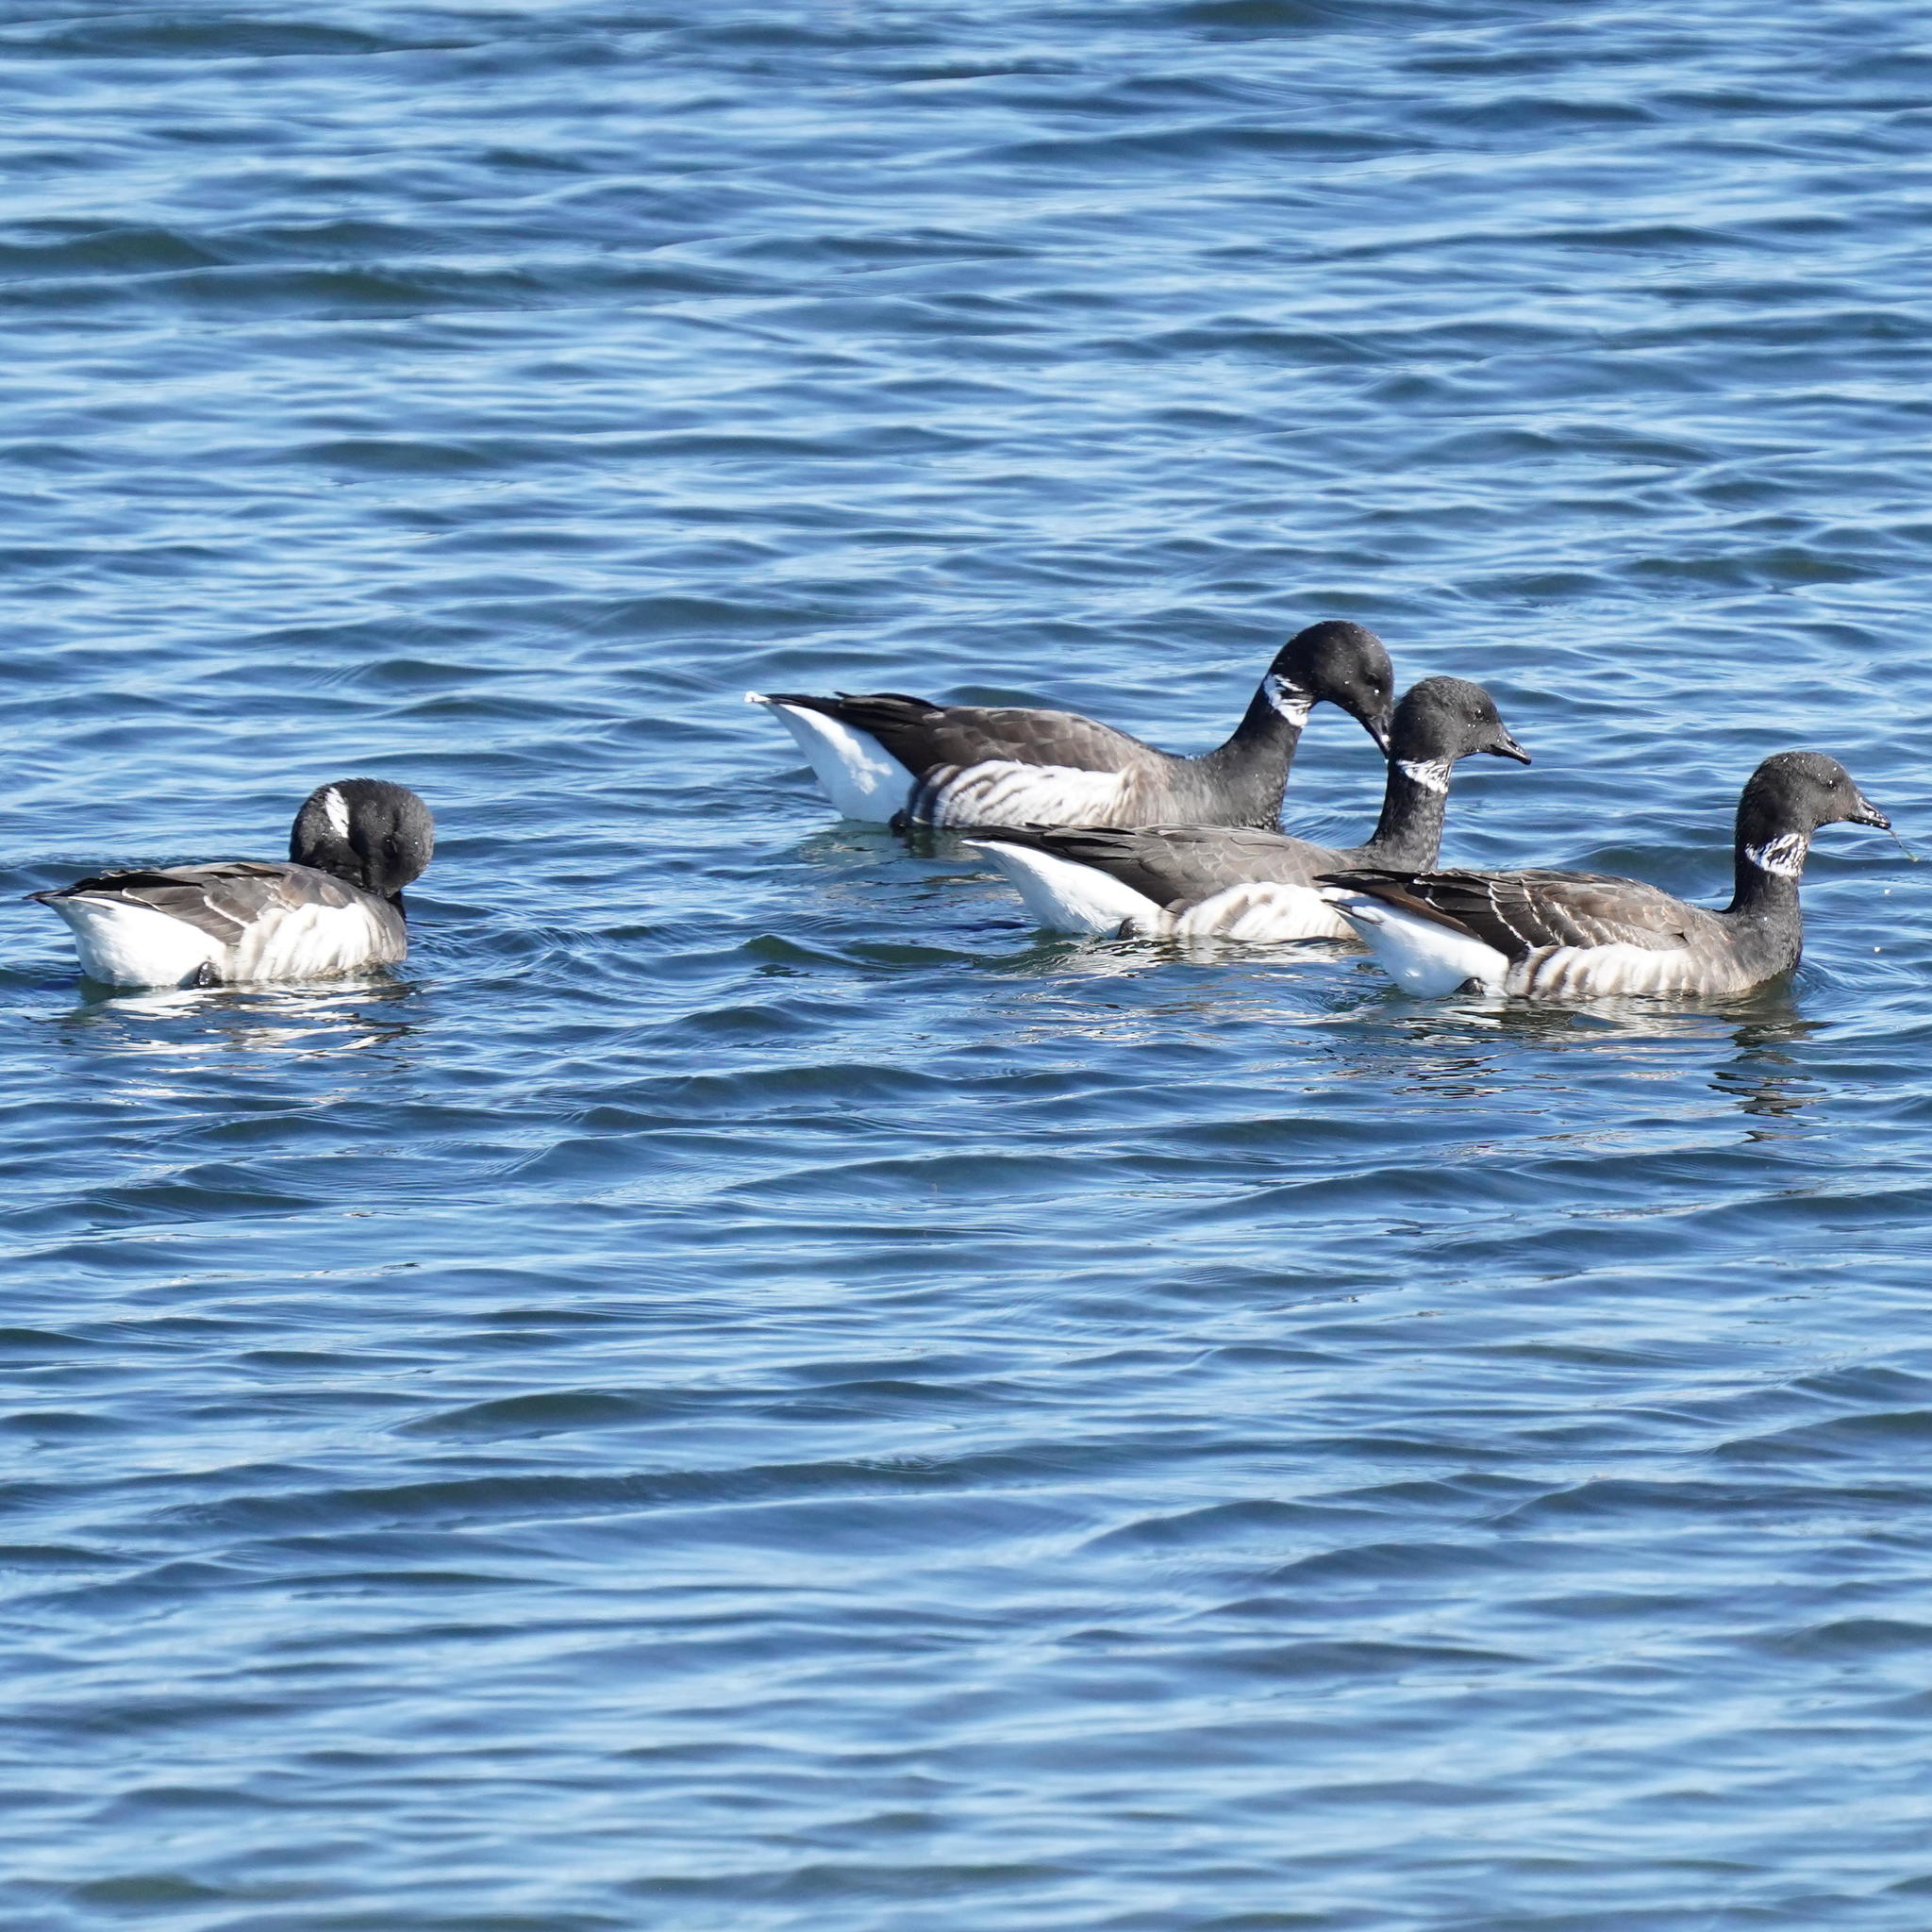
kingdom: Animalia
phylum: Chordata
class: Aves
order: Anseriformes
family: Anatidae
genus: Branta
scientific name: Branta bernicla
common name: Brant goose
